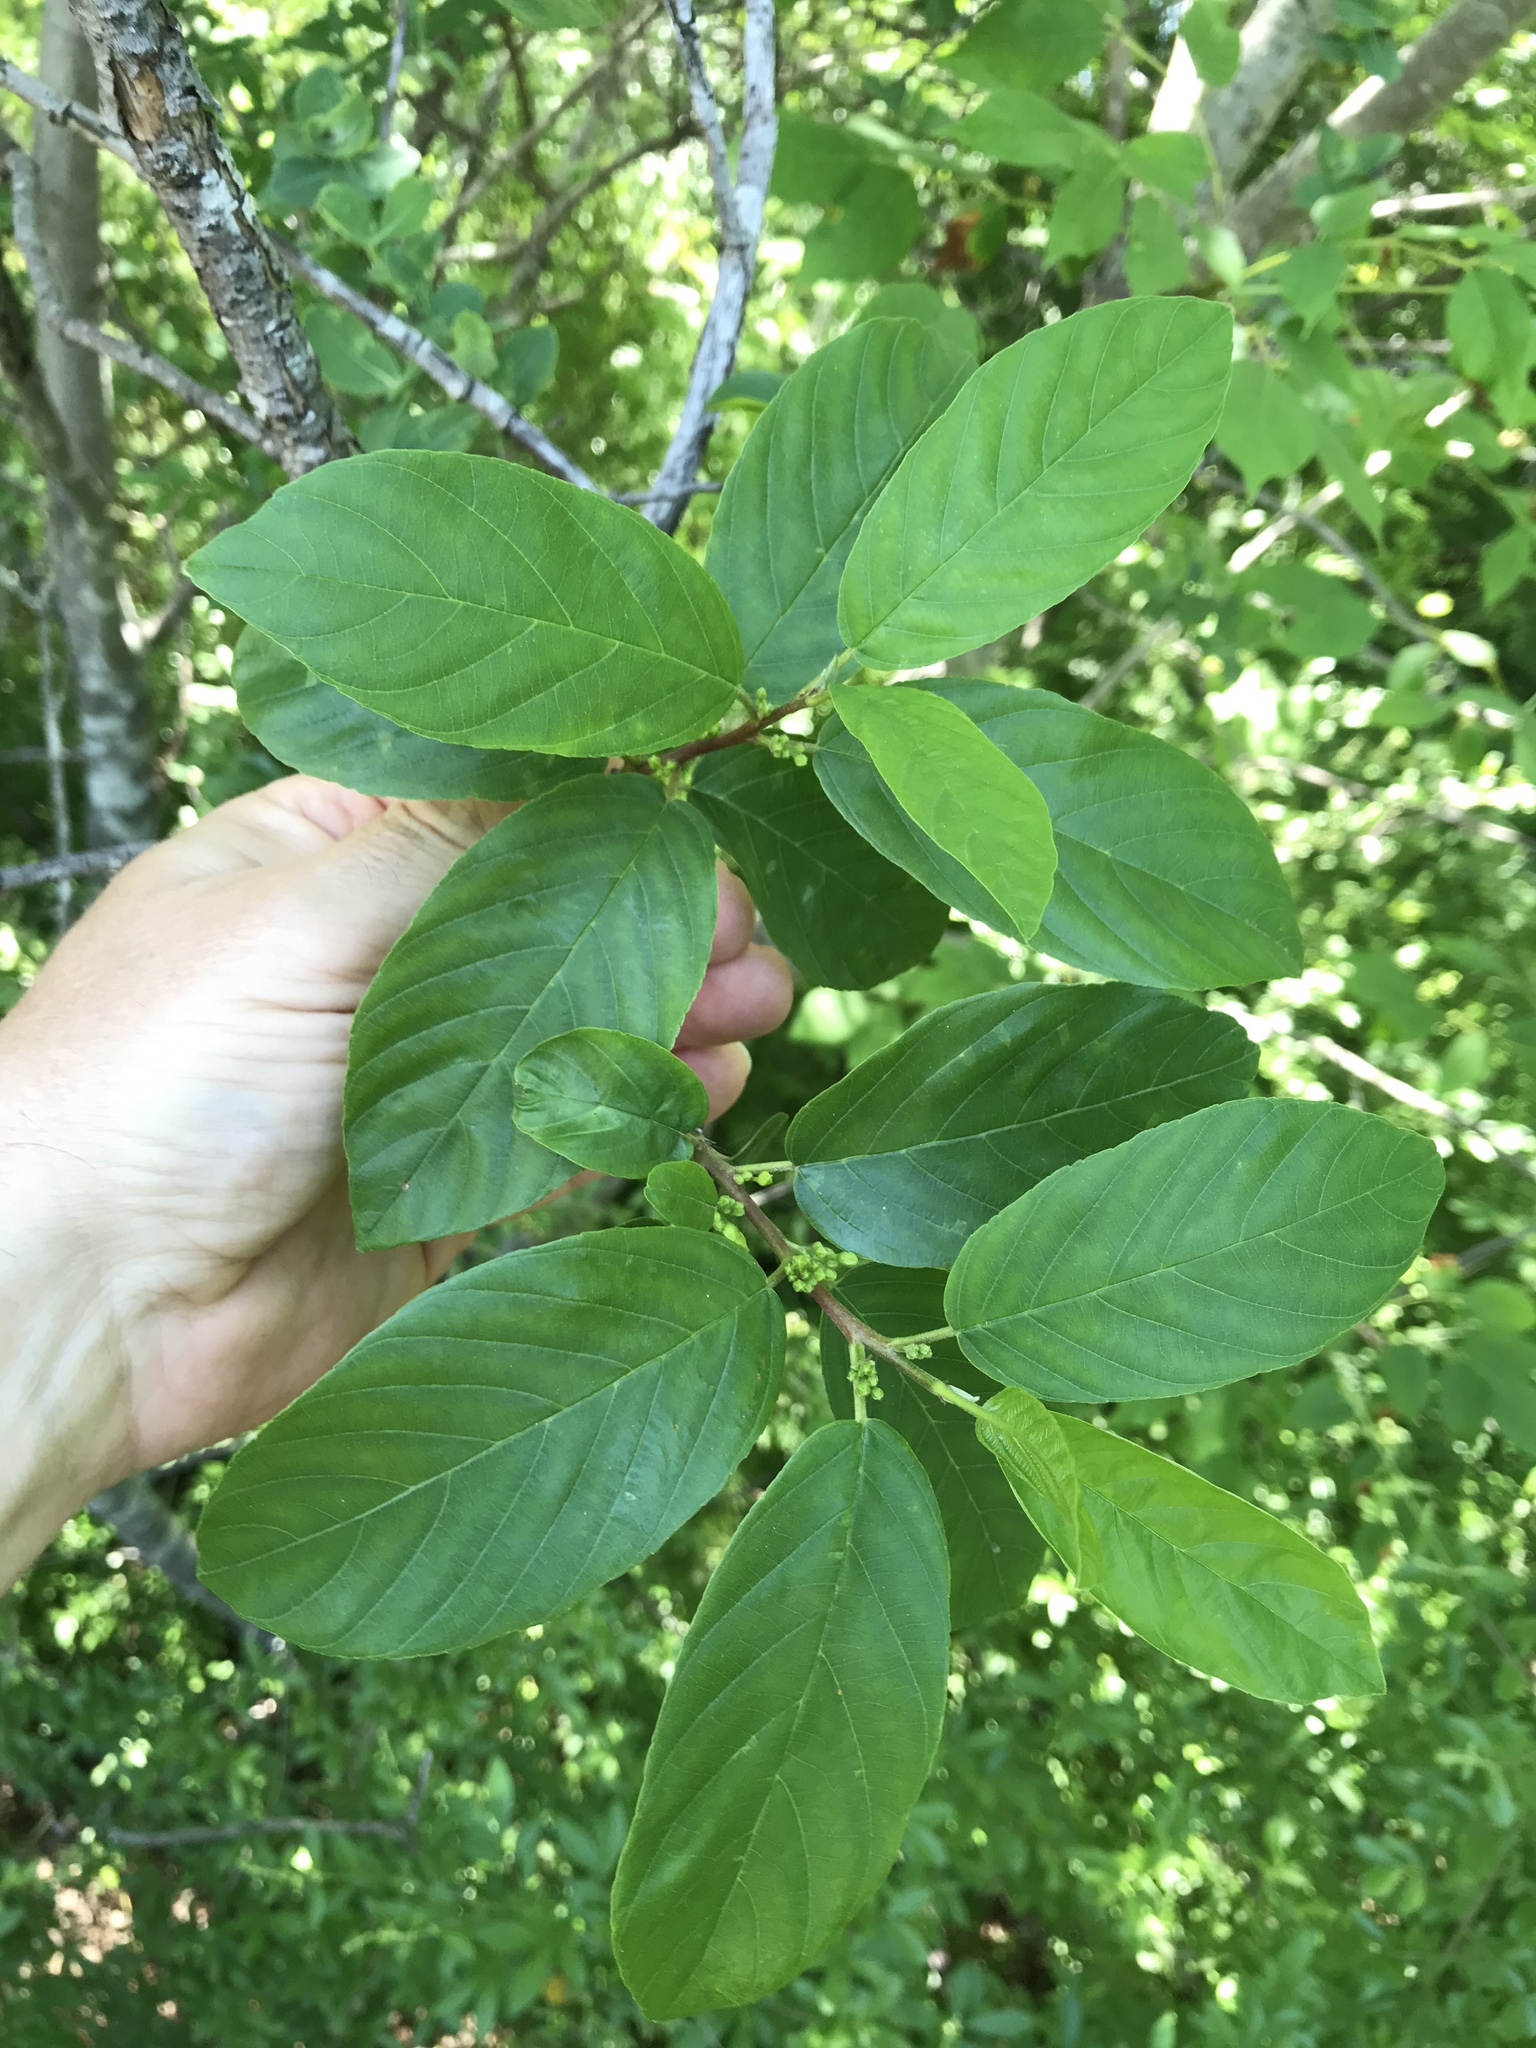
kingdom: Plantae
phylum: Tracheophyta
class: Magnoliopsida
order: Rosales
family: Rhamnaceae
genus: Frangula
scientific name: Frangula caroliniana
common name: Carolina buckthorn
